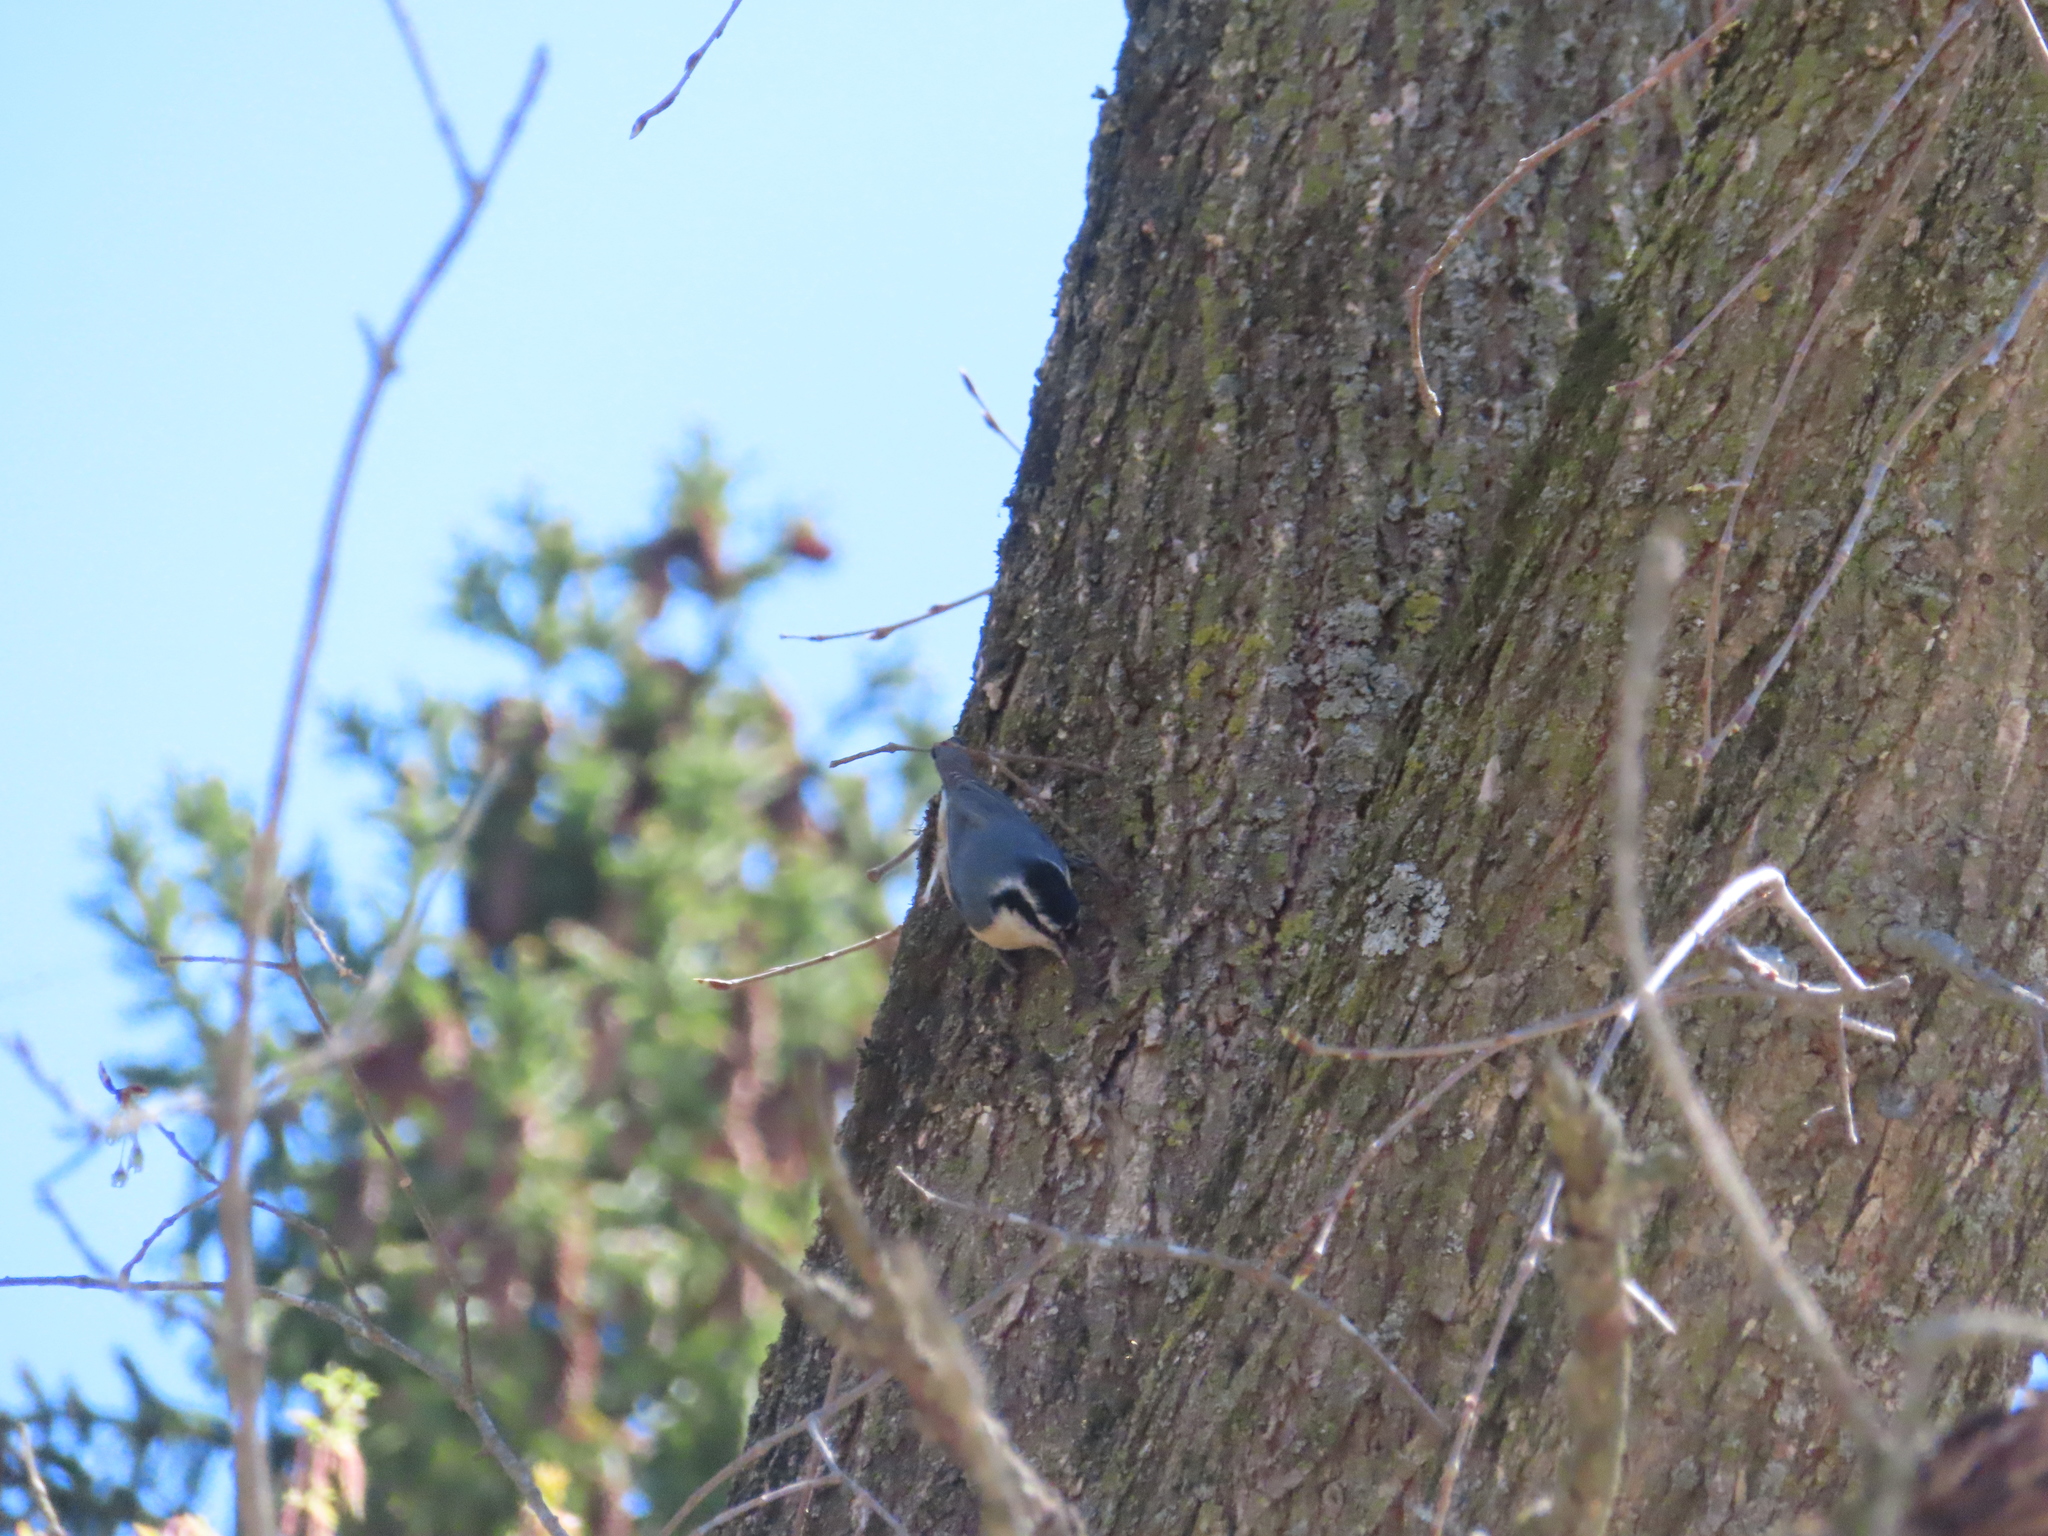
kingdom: Animalia
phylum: Chordata
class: Aves
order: Passeriformes
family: Sittidae
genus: Sitta
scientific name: Sitta canadensis
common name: Red-breasted nuthatch
